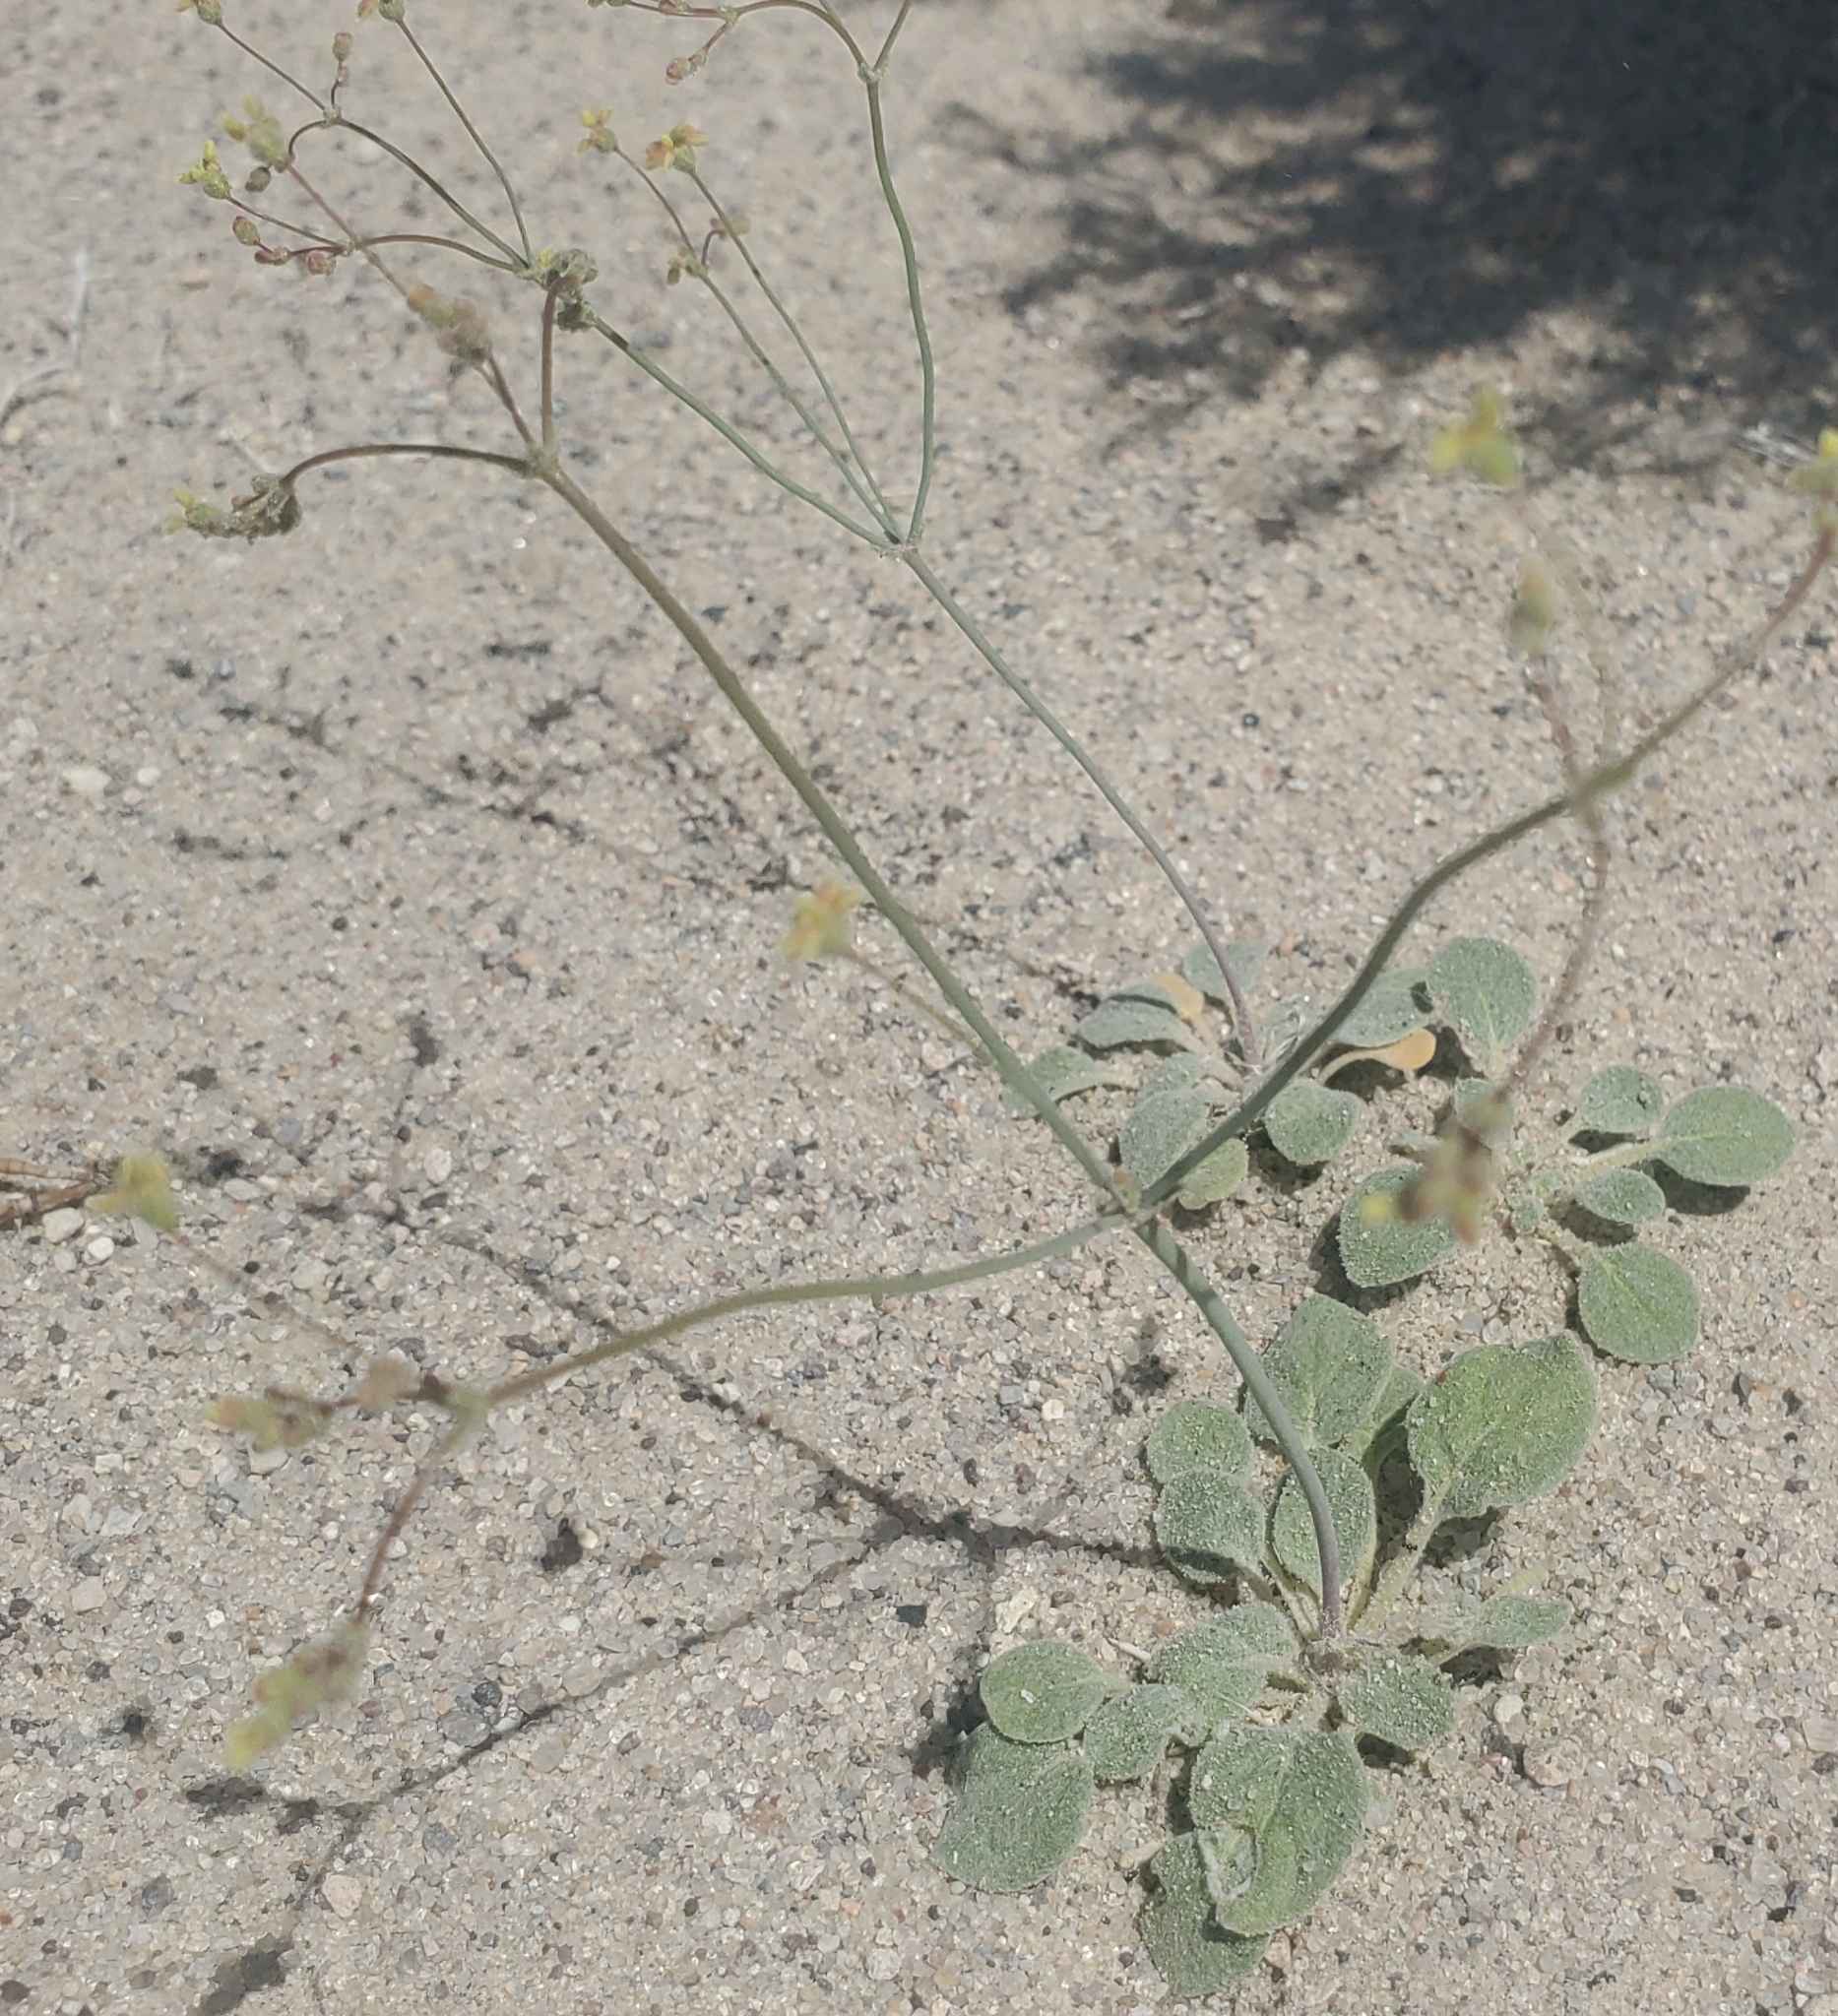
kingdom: Plantae
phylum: Tracheophyta
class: Magnoliopsida
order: Caryophyllales
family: Polygonaceae
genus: Eriogonum
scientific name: Eriogonum pusillum
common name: Yellow turbans
